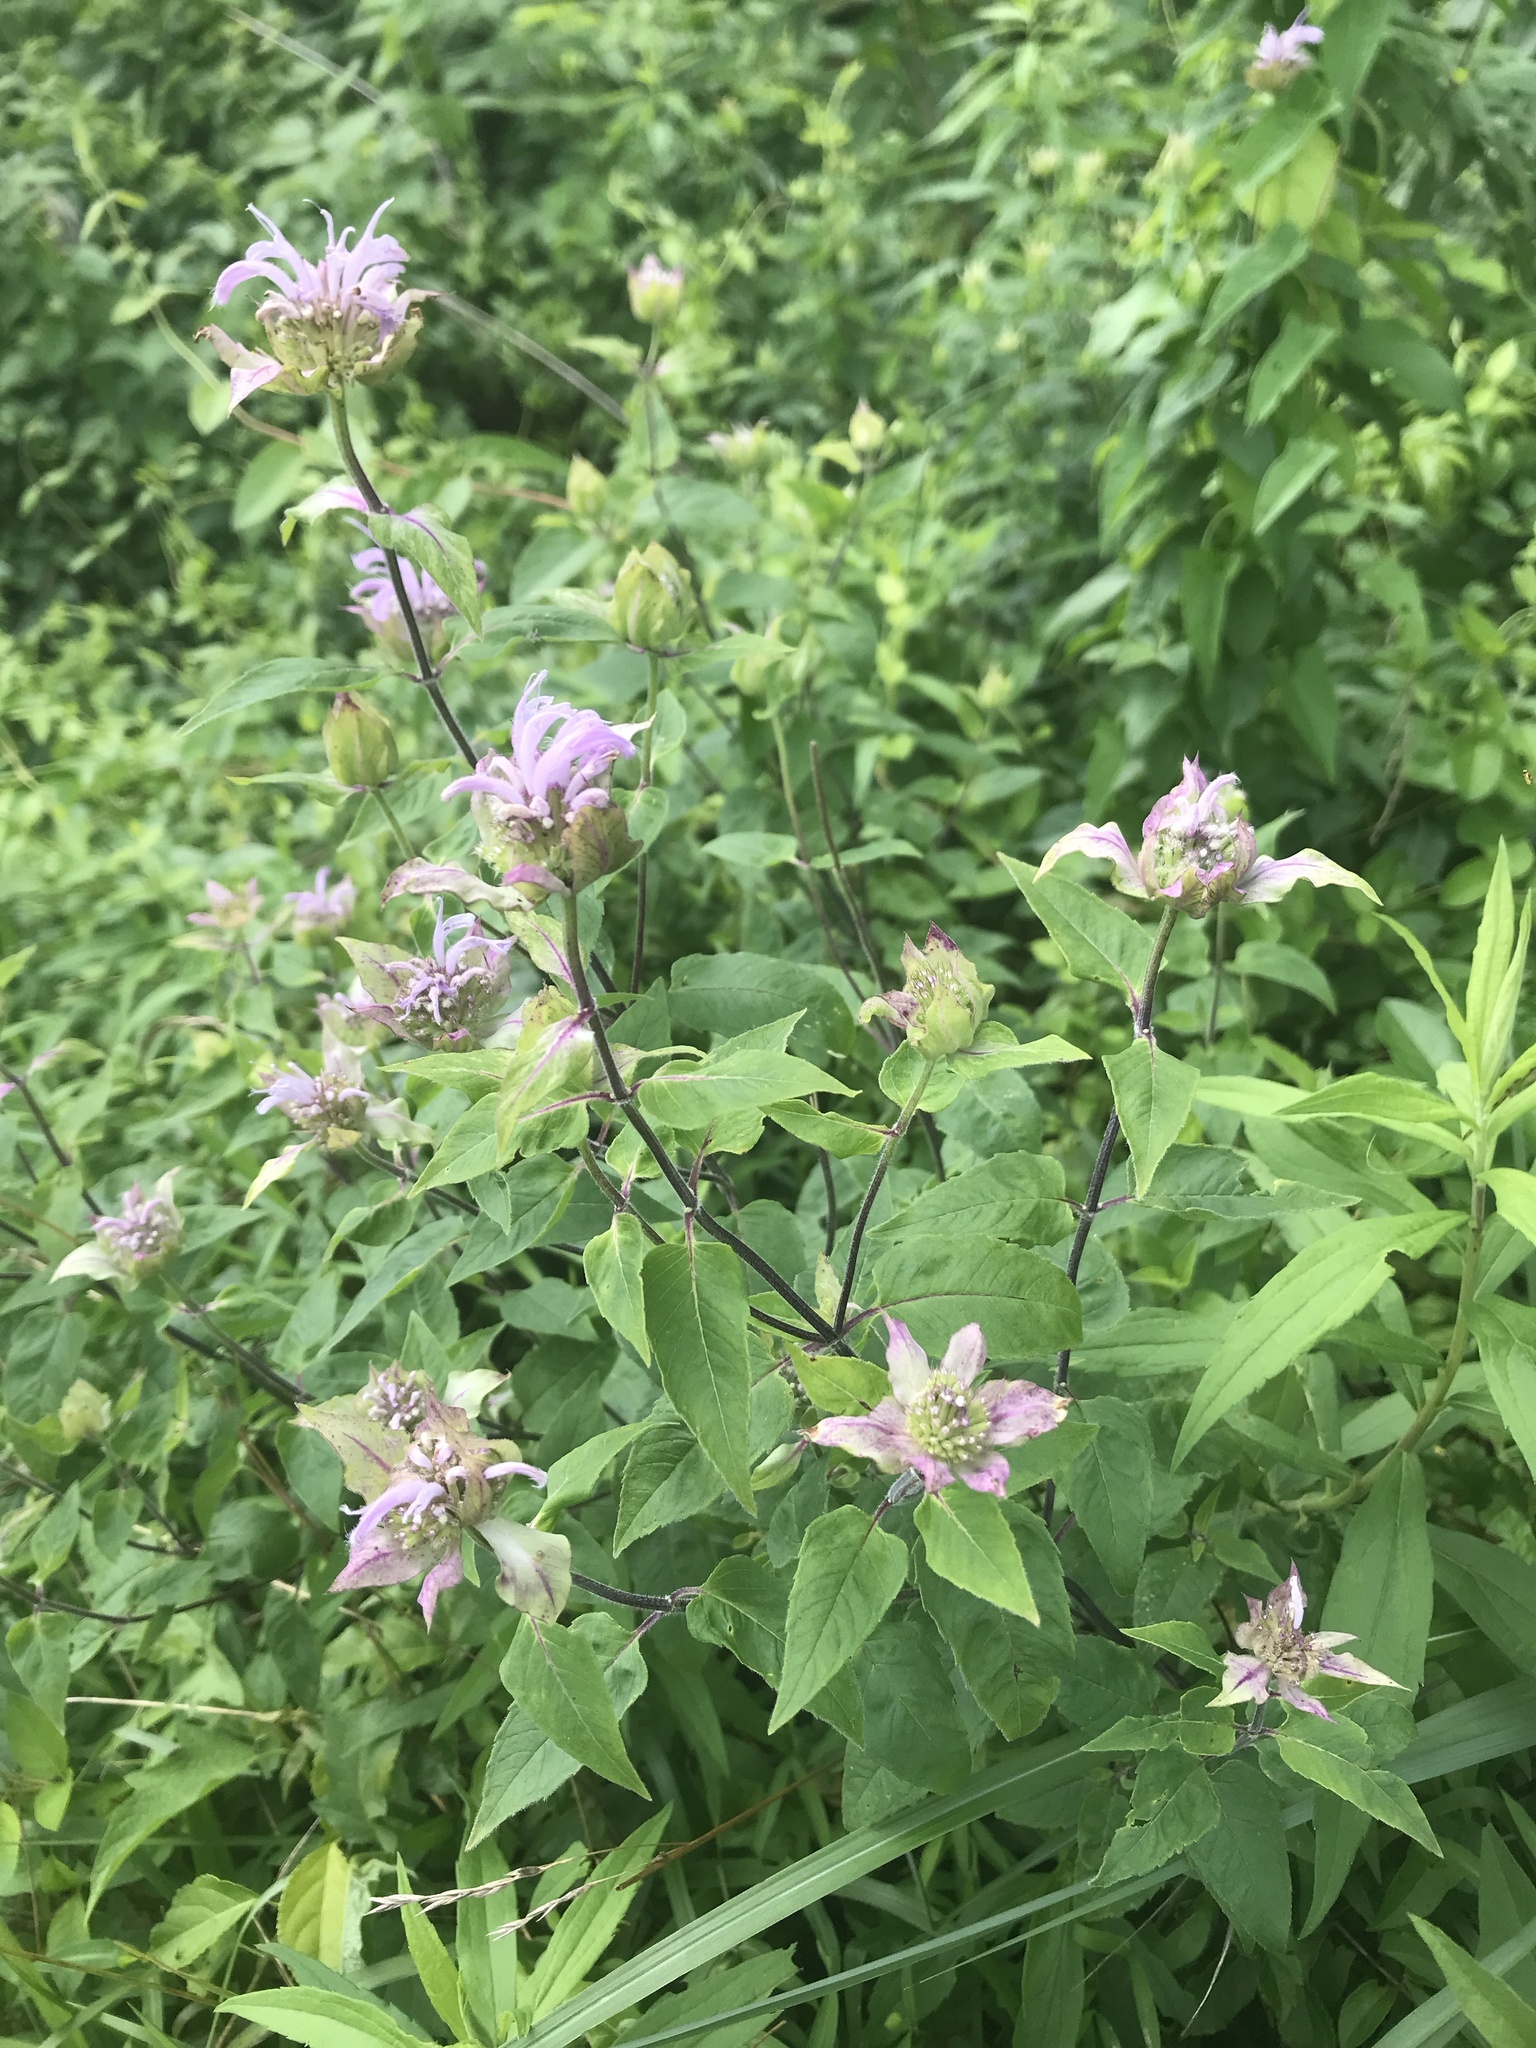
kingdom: Plantae
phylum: Tracheophyta
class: Magnoliopsida
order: Lamiales
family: Lamiaceae
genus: Monarda
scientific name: Monarda fistulosa
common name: Purple beebalm
